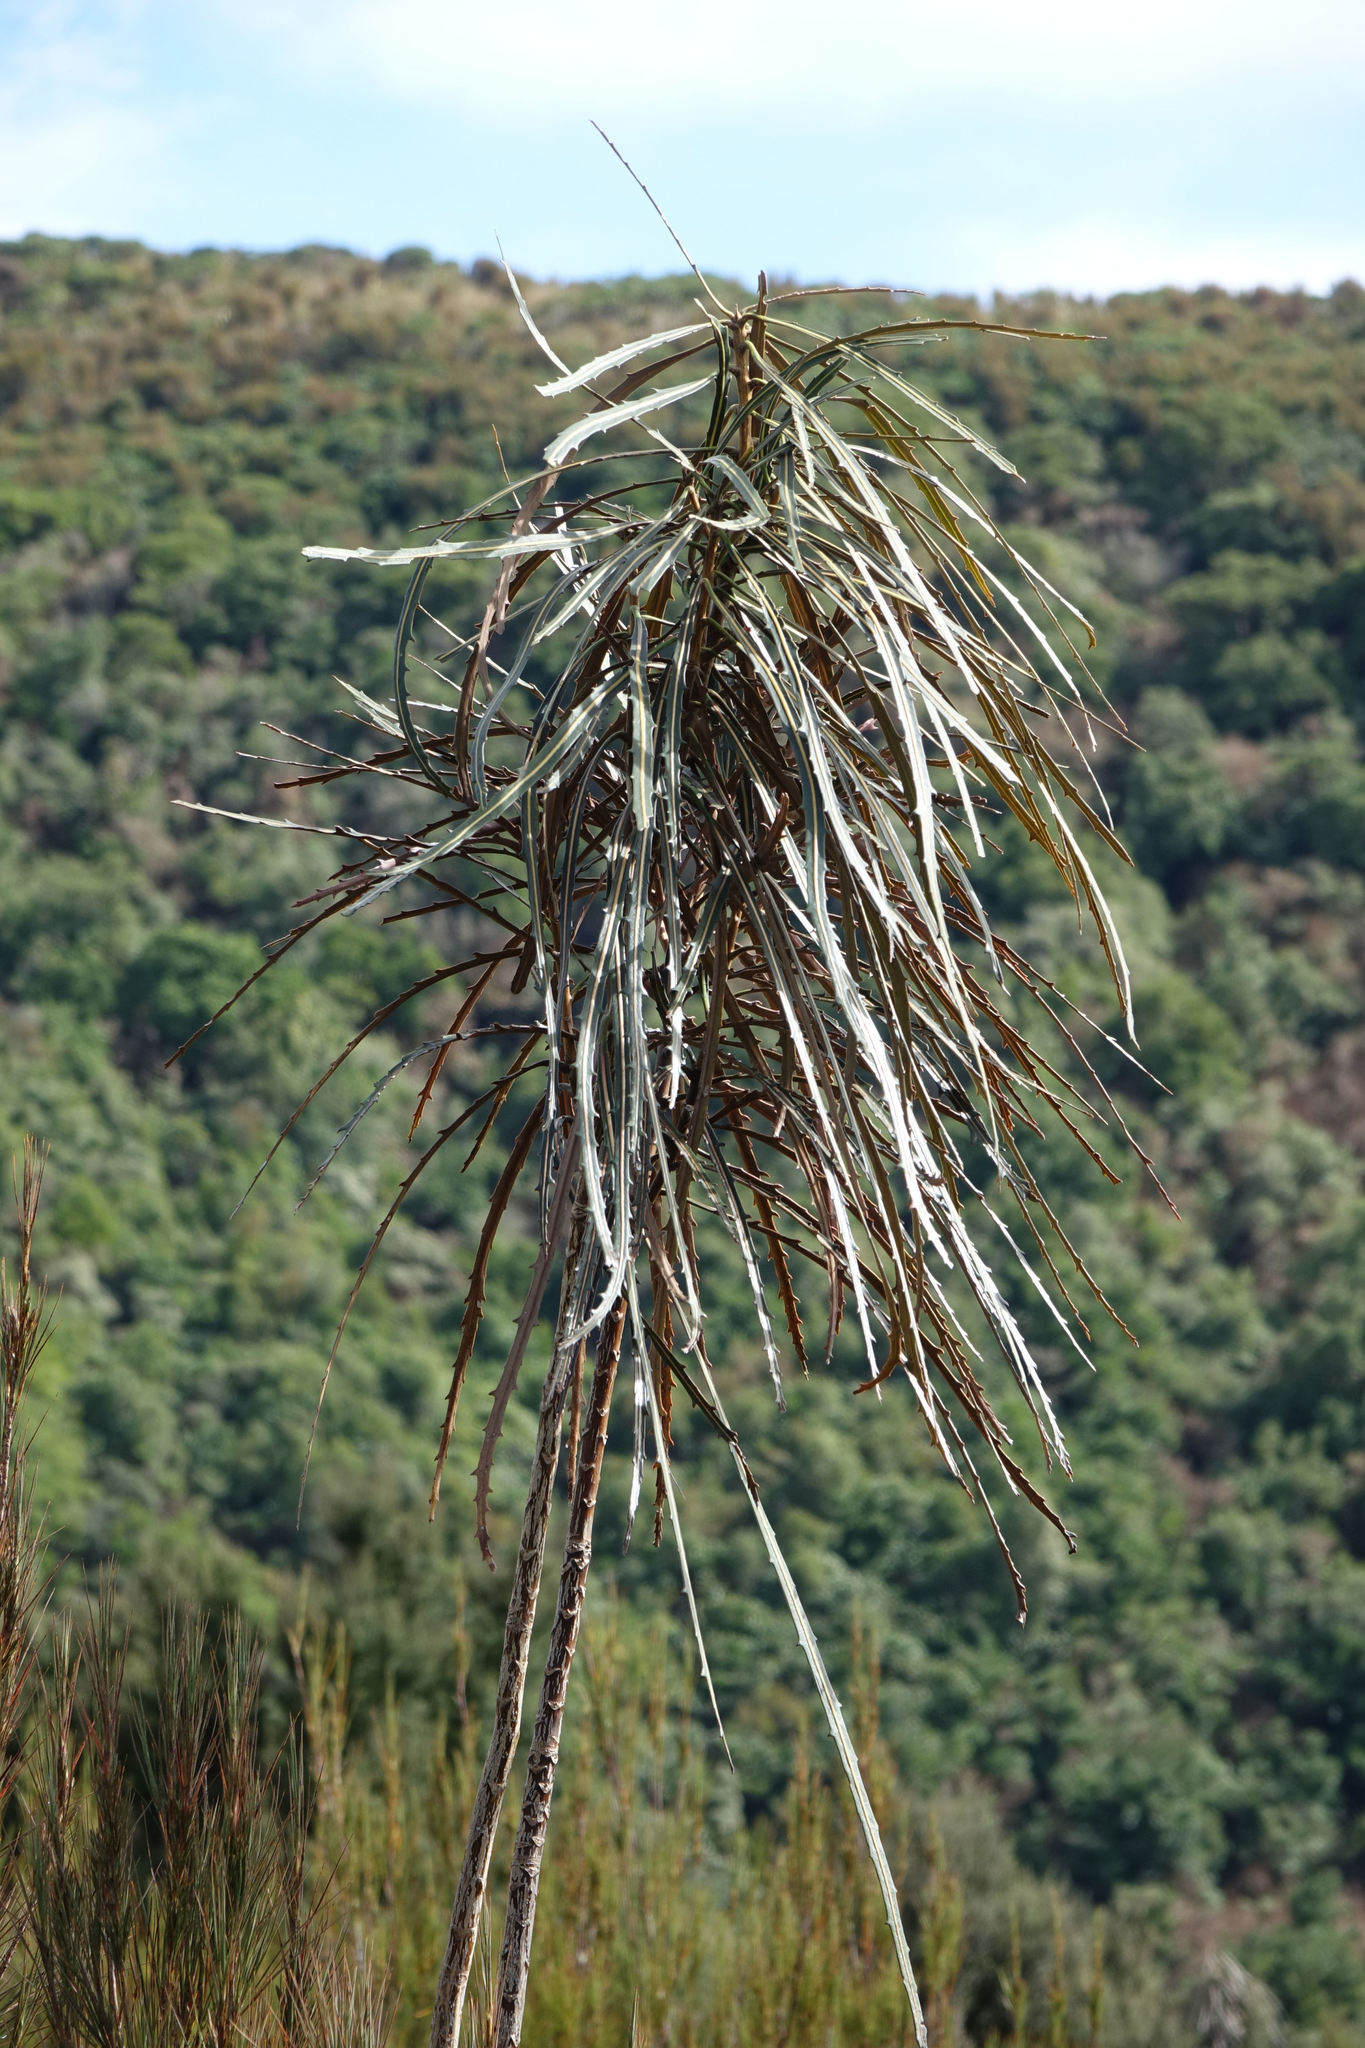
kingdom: Plantae
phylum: Tracheophyta
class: Magnoliopsida
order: Apiales
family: Araliaceae
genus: Pseudopanax
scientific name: Pseudopanax crassifolius
